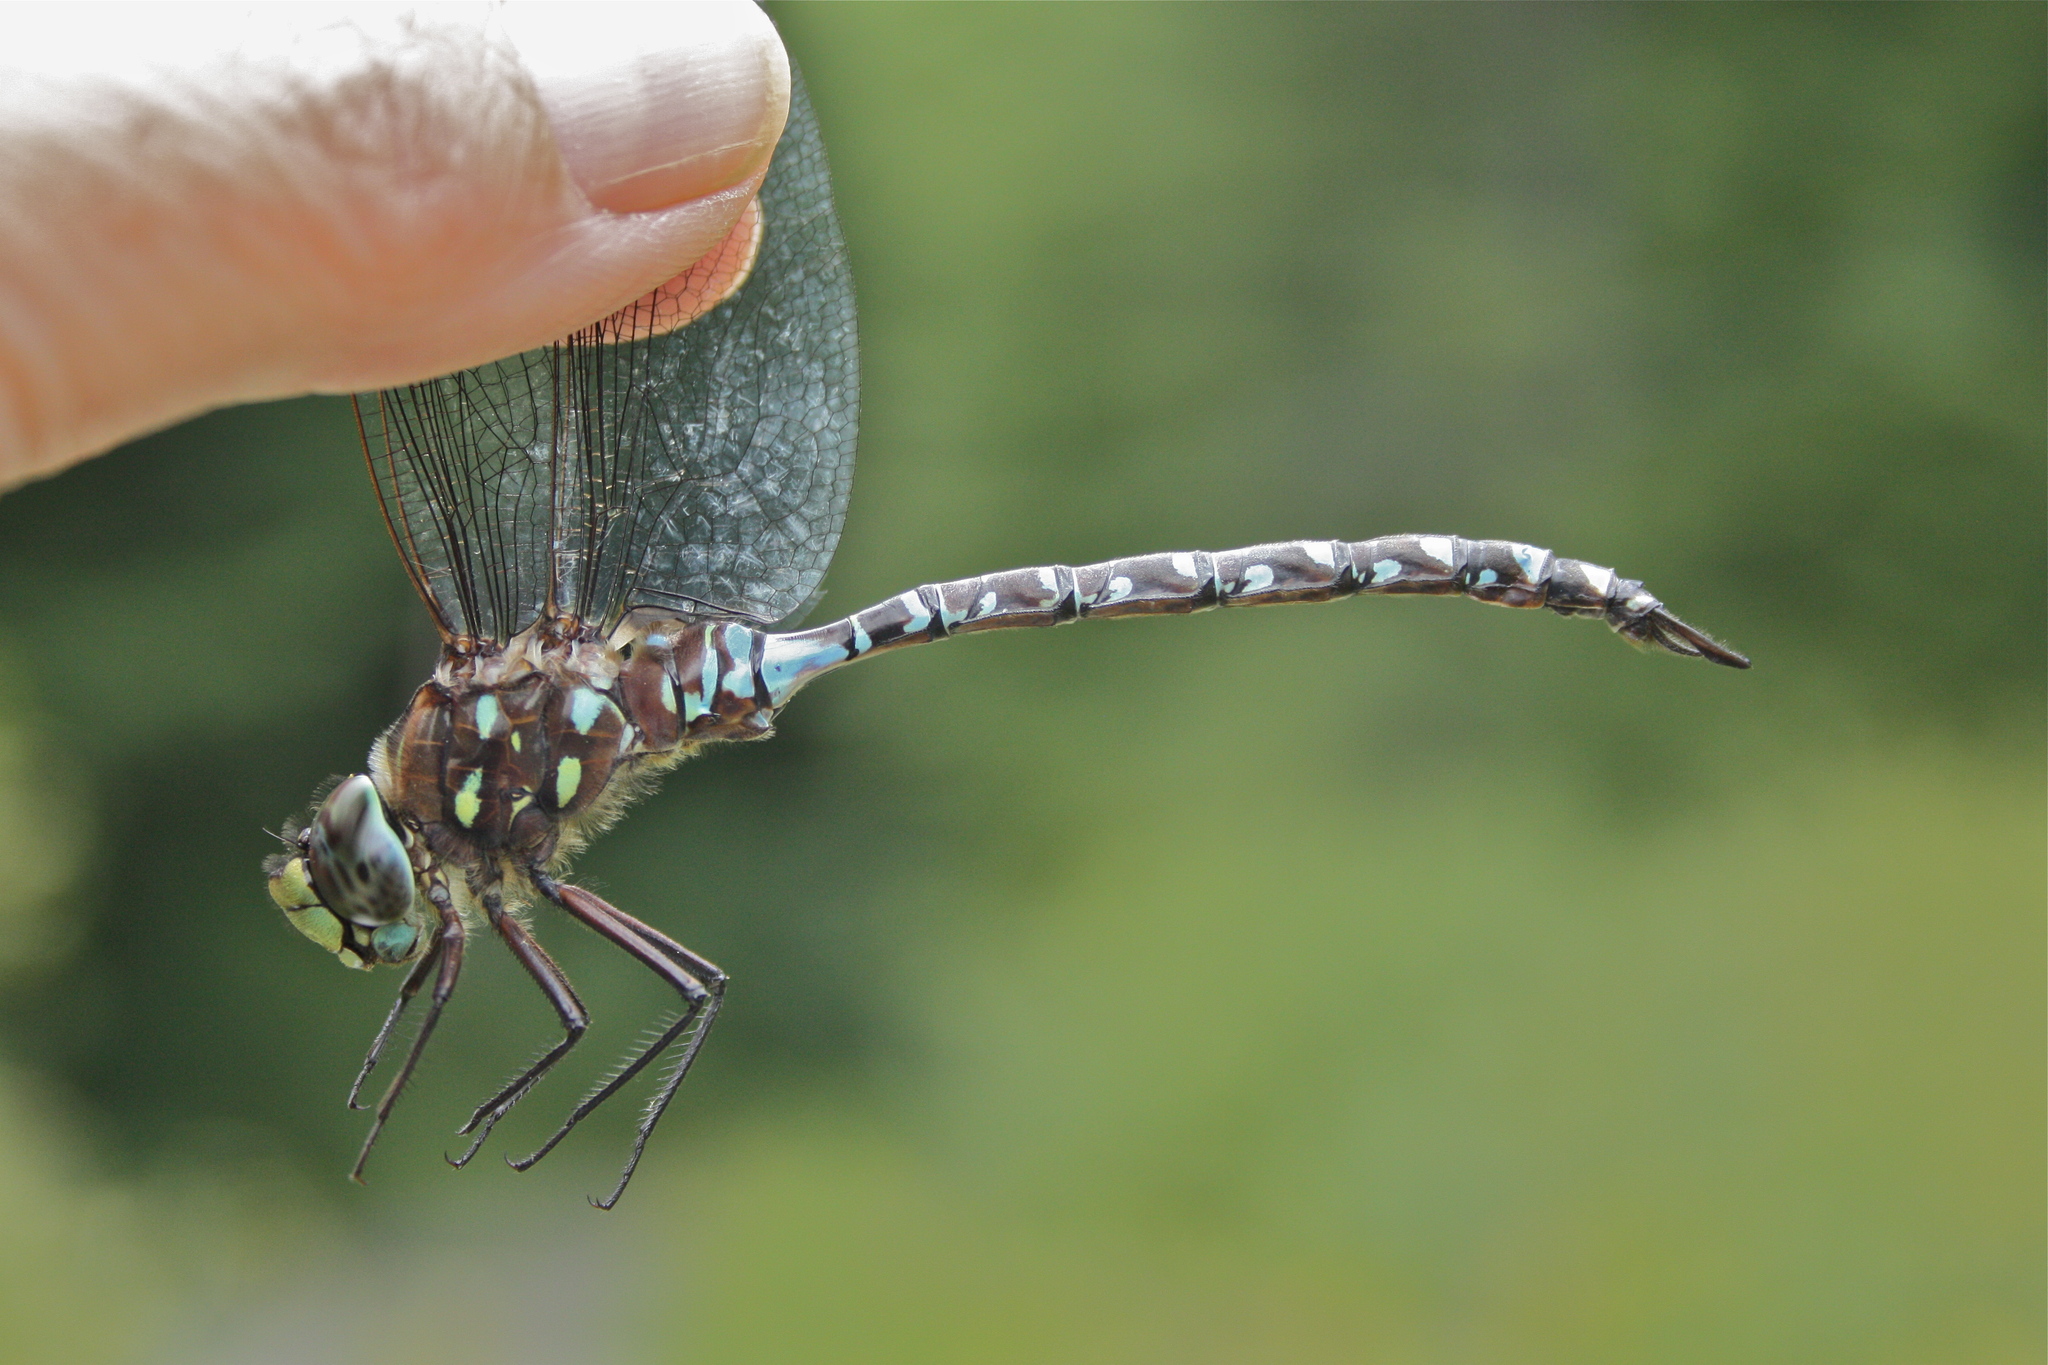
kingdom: Animalia
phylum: Arthropoda
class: Insecta
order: Odonata
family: Aeshnidae
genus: Aeshna
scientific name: Aeshna interrupta
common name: Variable darner
